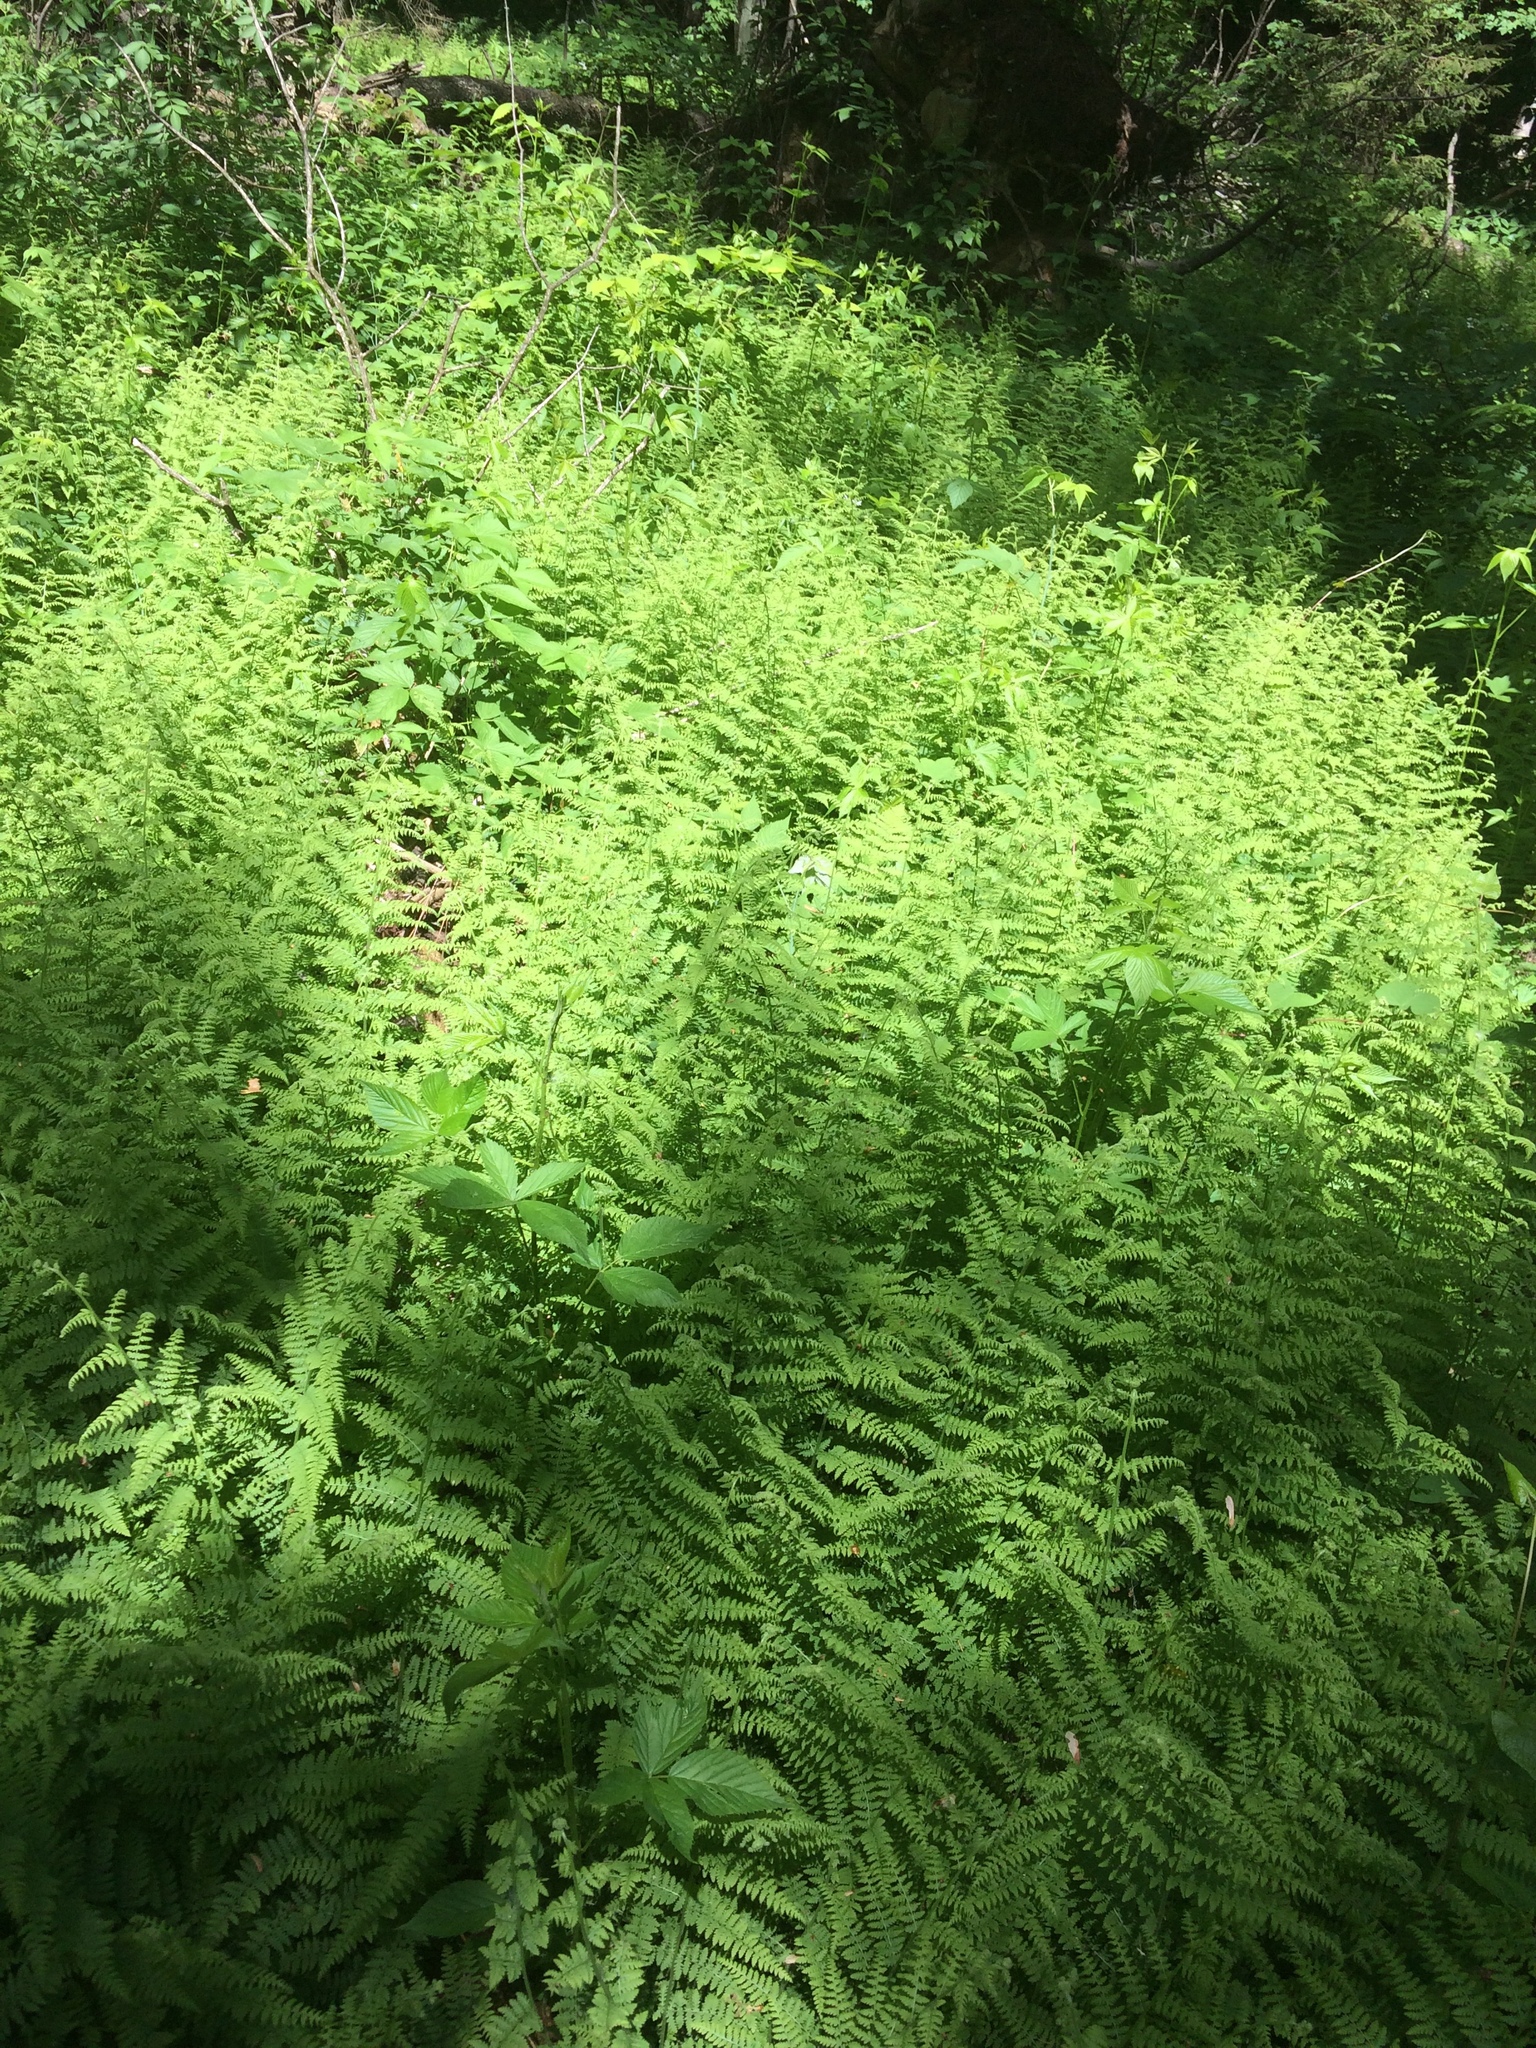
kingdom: Plantae
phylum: Tracheophyta
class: Polypodiopsida
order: Polypodiales
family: Dennstaedtiaceae
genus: Sitobolium
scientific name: Sitobolium punctilobum
